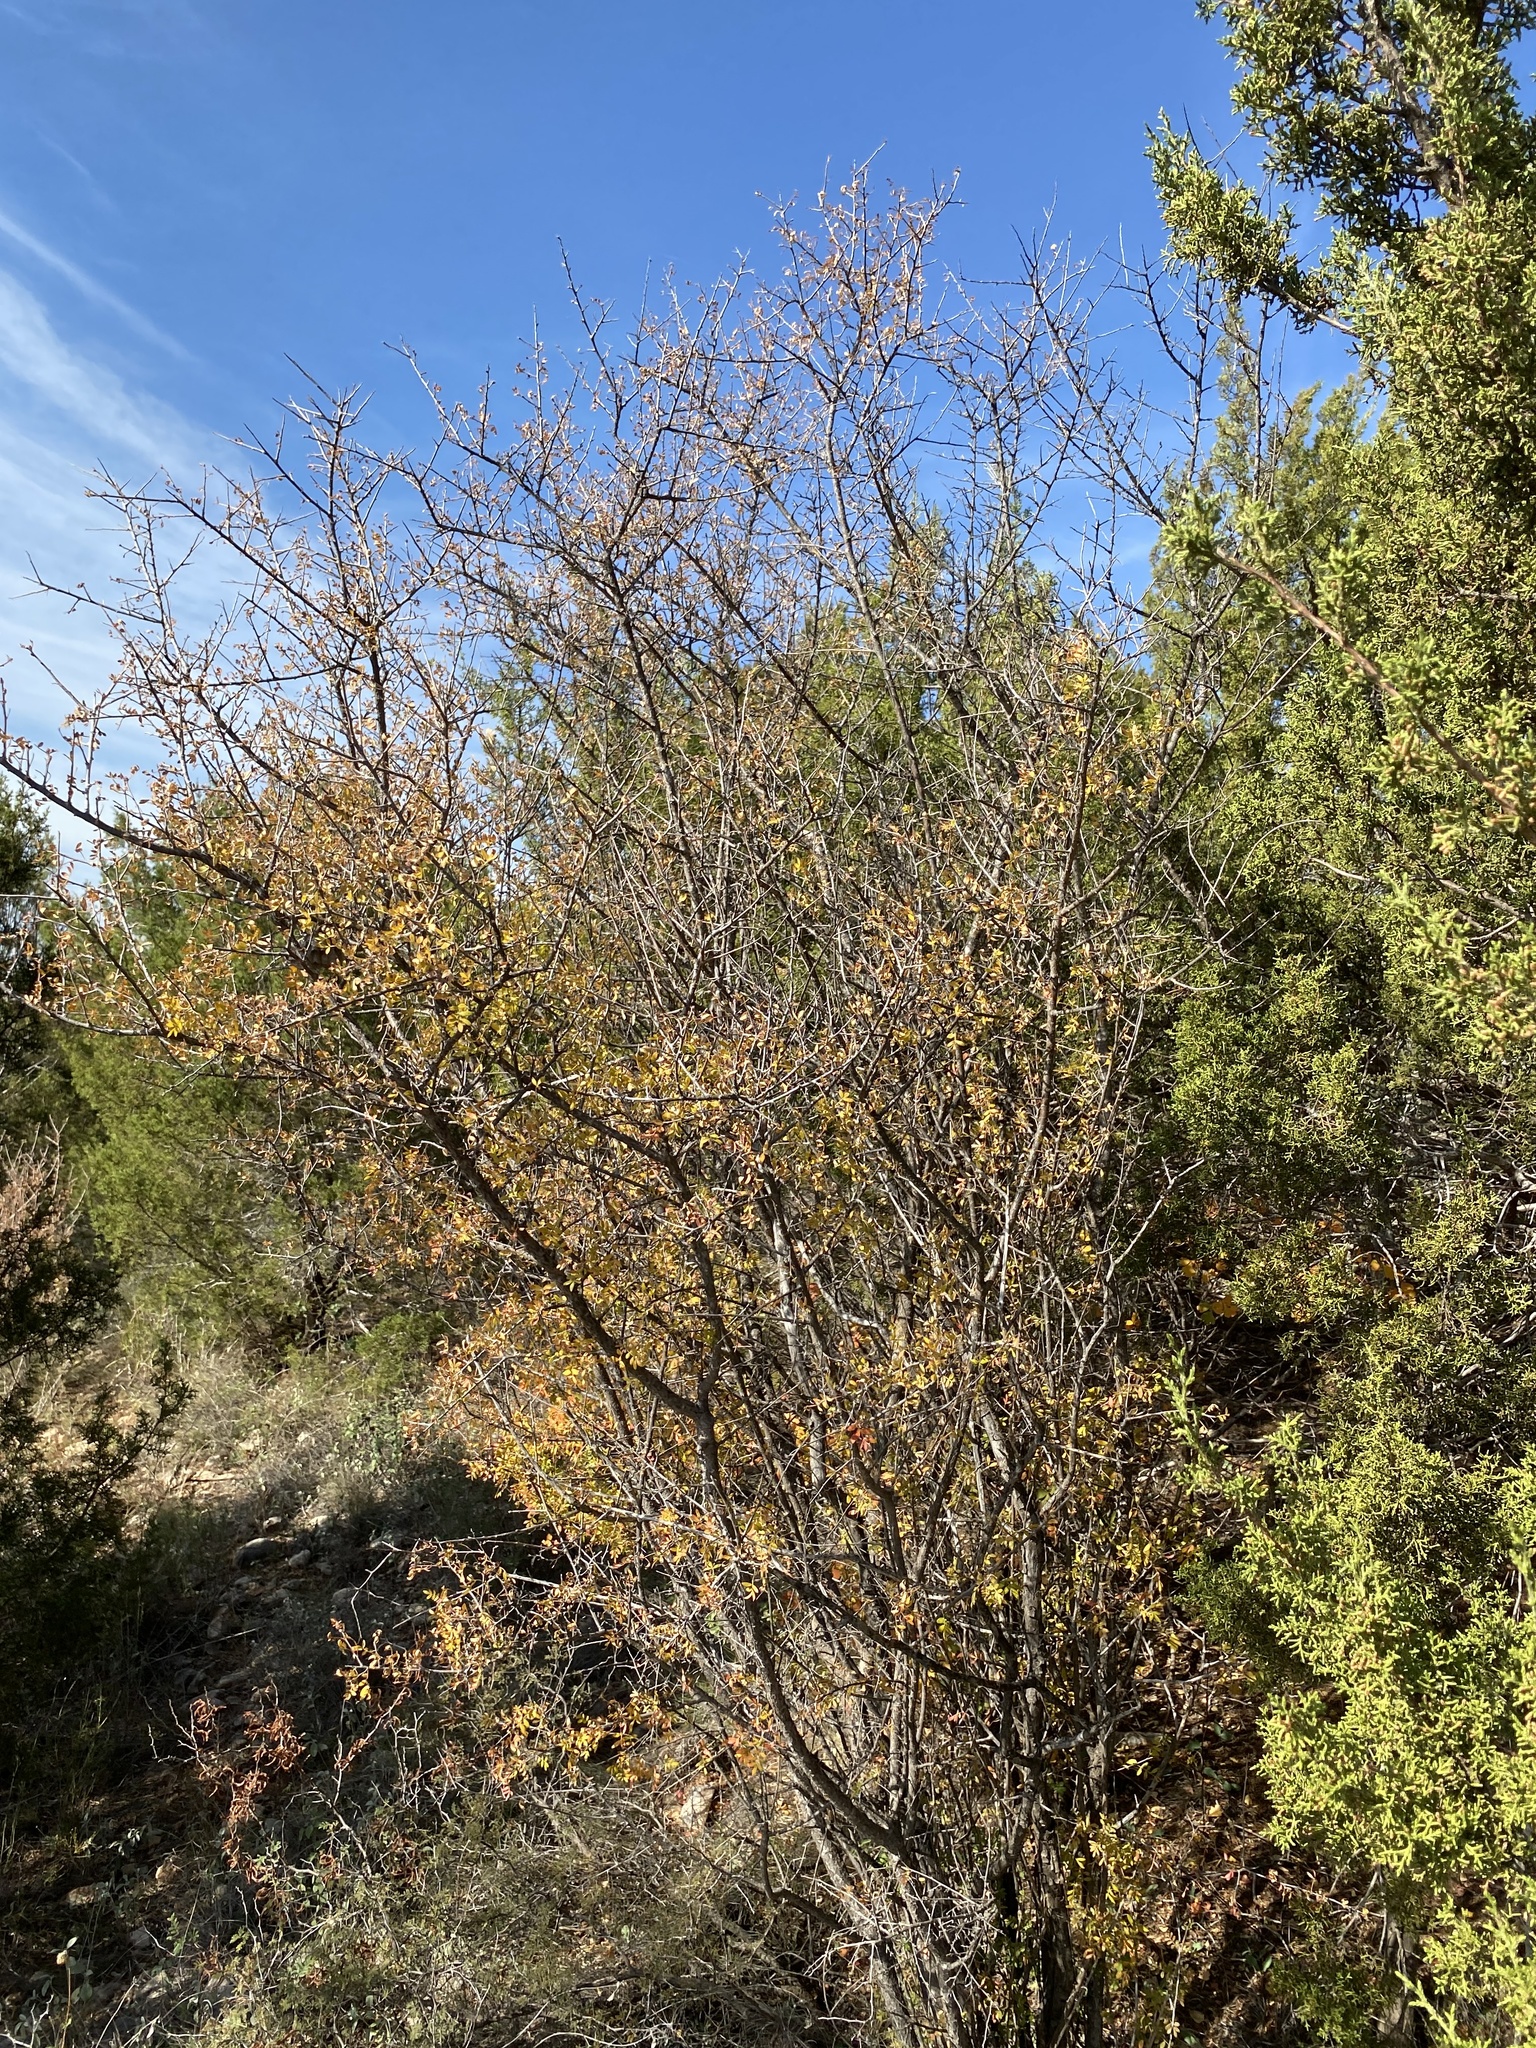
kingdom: Plantae
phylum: Tracheophyta
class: Magnoliopsida
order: Sapindales
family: Anacardiaceae
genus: Rhus
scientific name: Rhus microphylla
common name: Desert sumac
